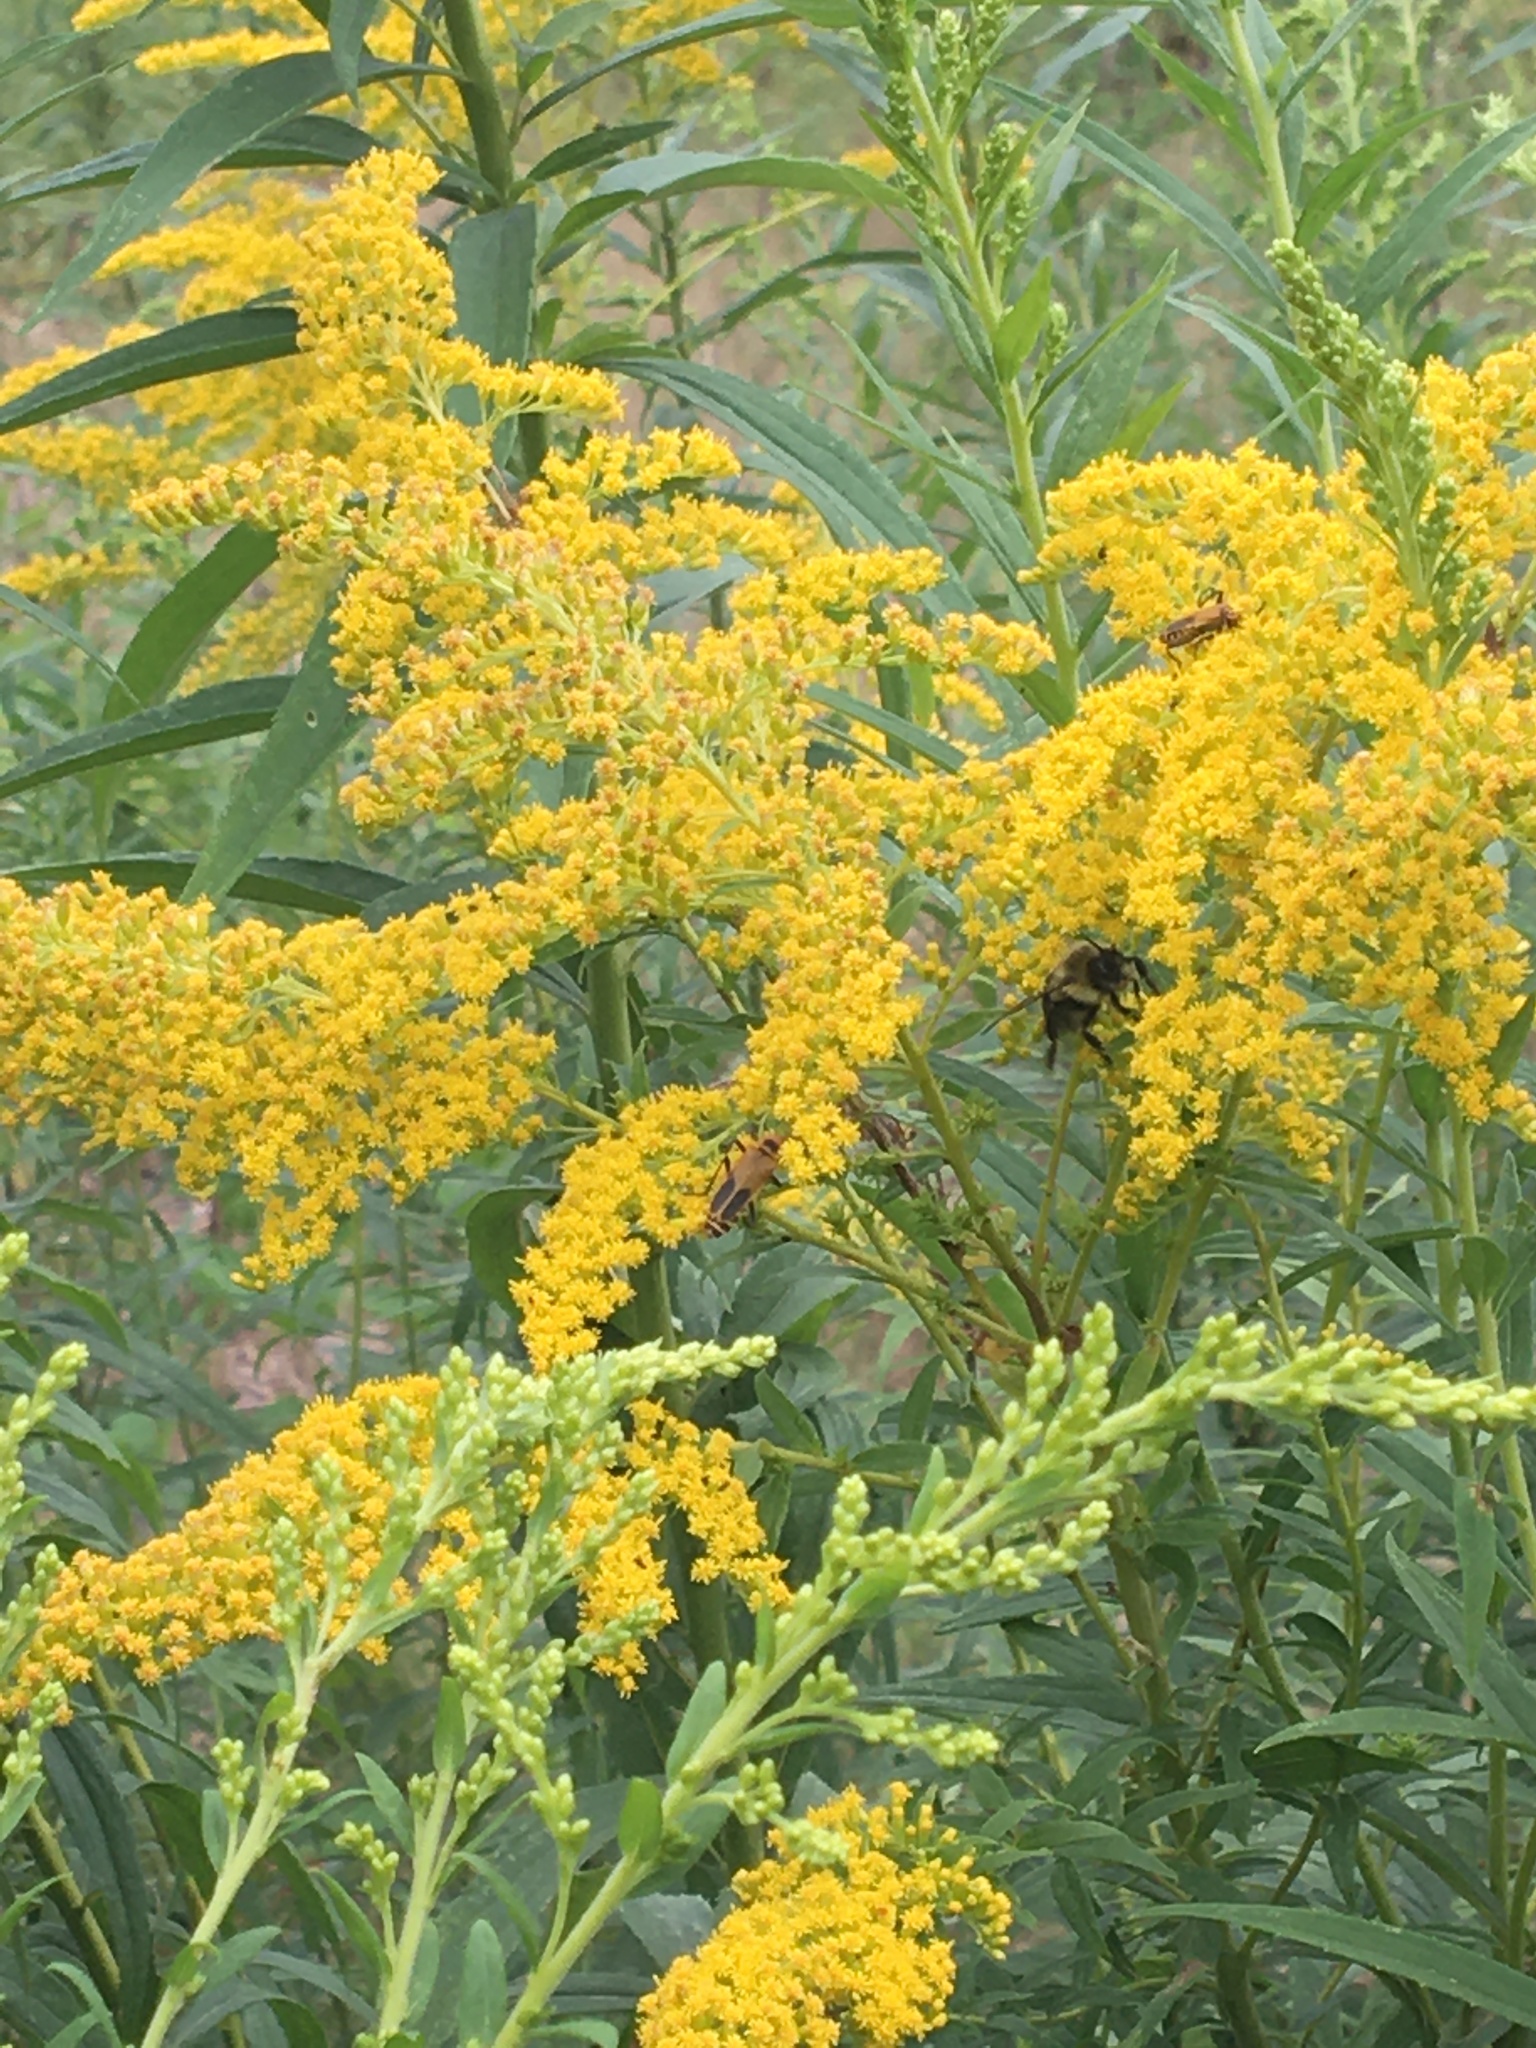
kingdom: Animalia
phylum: Arthropoda
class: Insecta
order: Coleoptera
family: Cantharidae
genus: Chauliognathus
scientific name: Chauliognathus pensylvanicus
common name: Goldenrod soldier beetle
